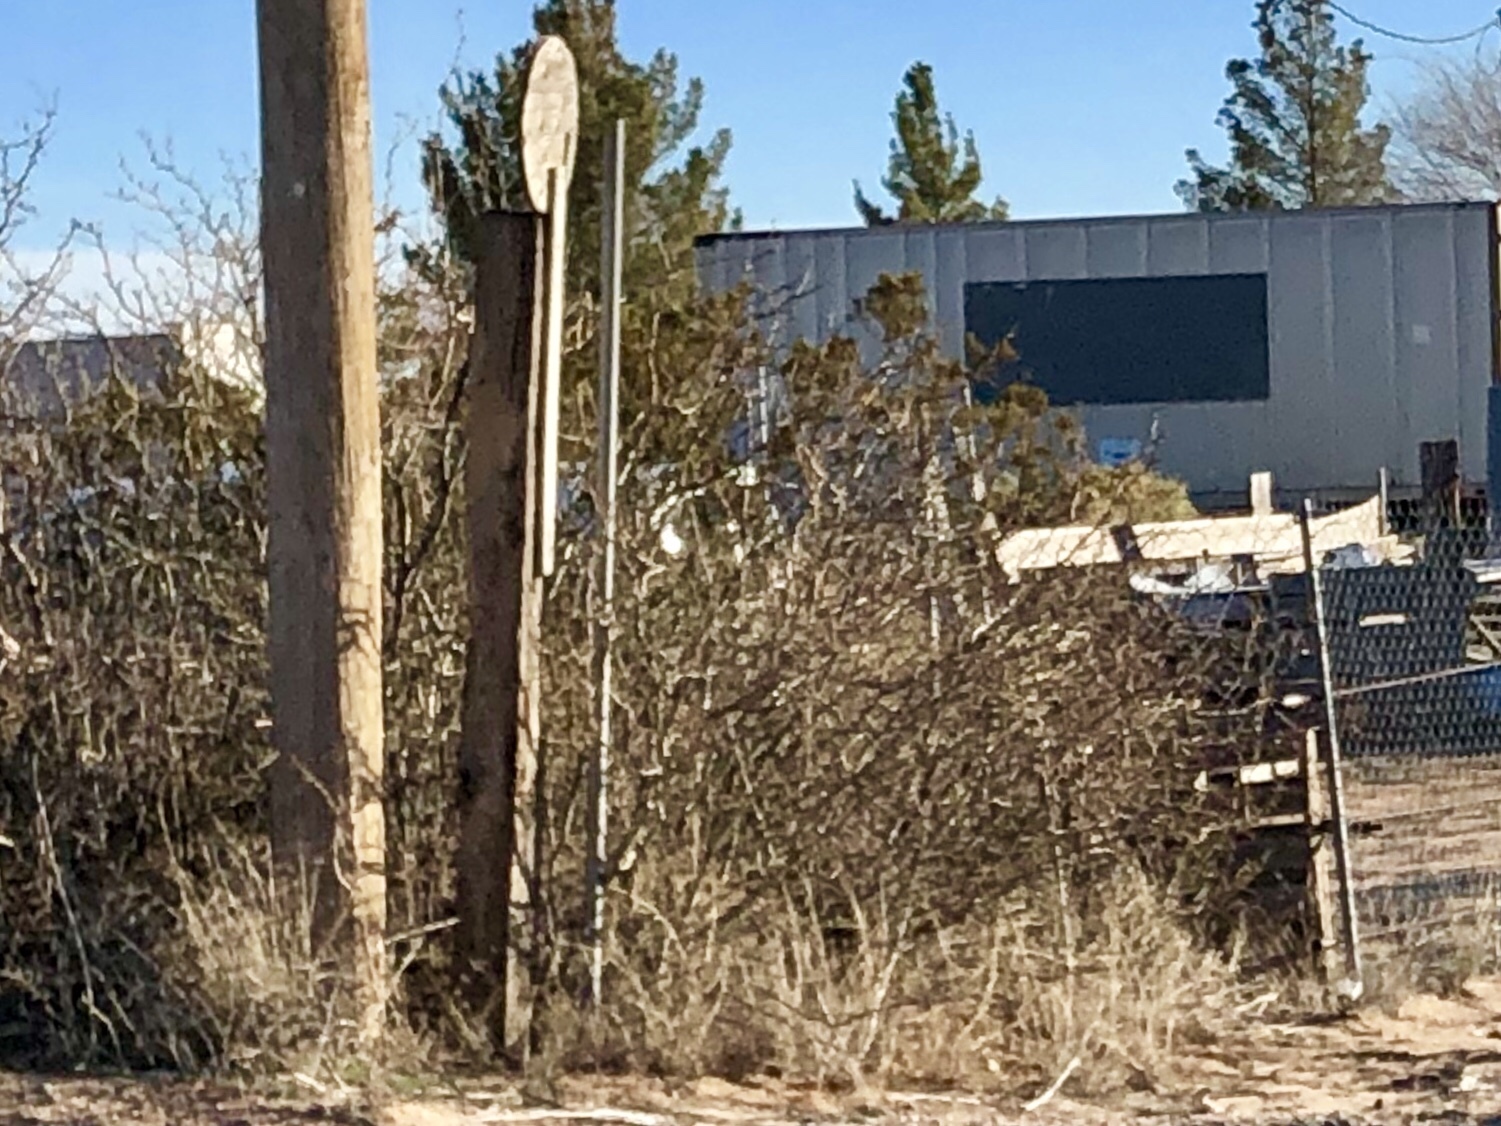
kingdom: Plantae
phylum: Tracheophyta
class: Magnoliopsida
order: Zygophyllales
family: Zygophyllaceae
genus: Larrea
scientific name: Larrea tridentata
